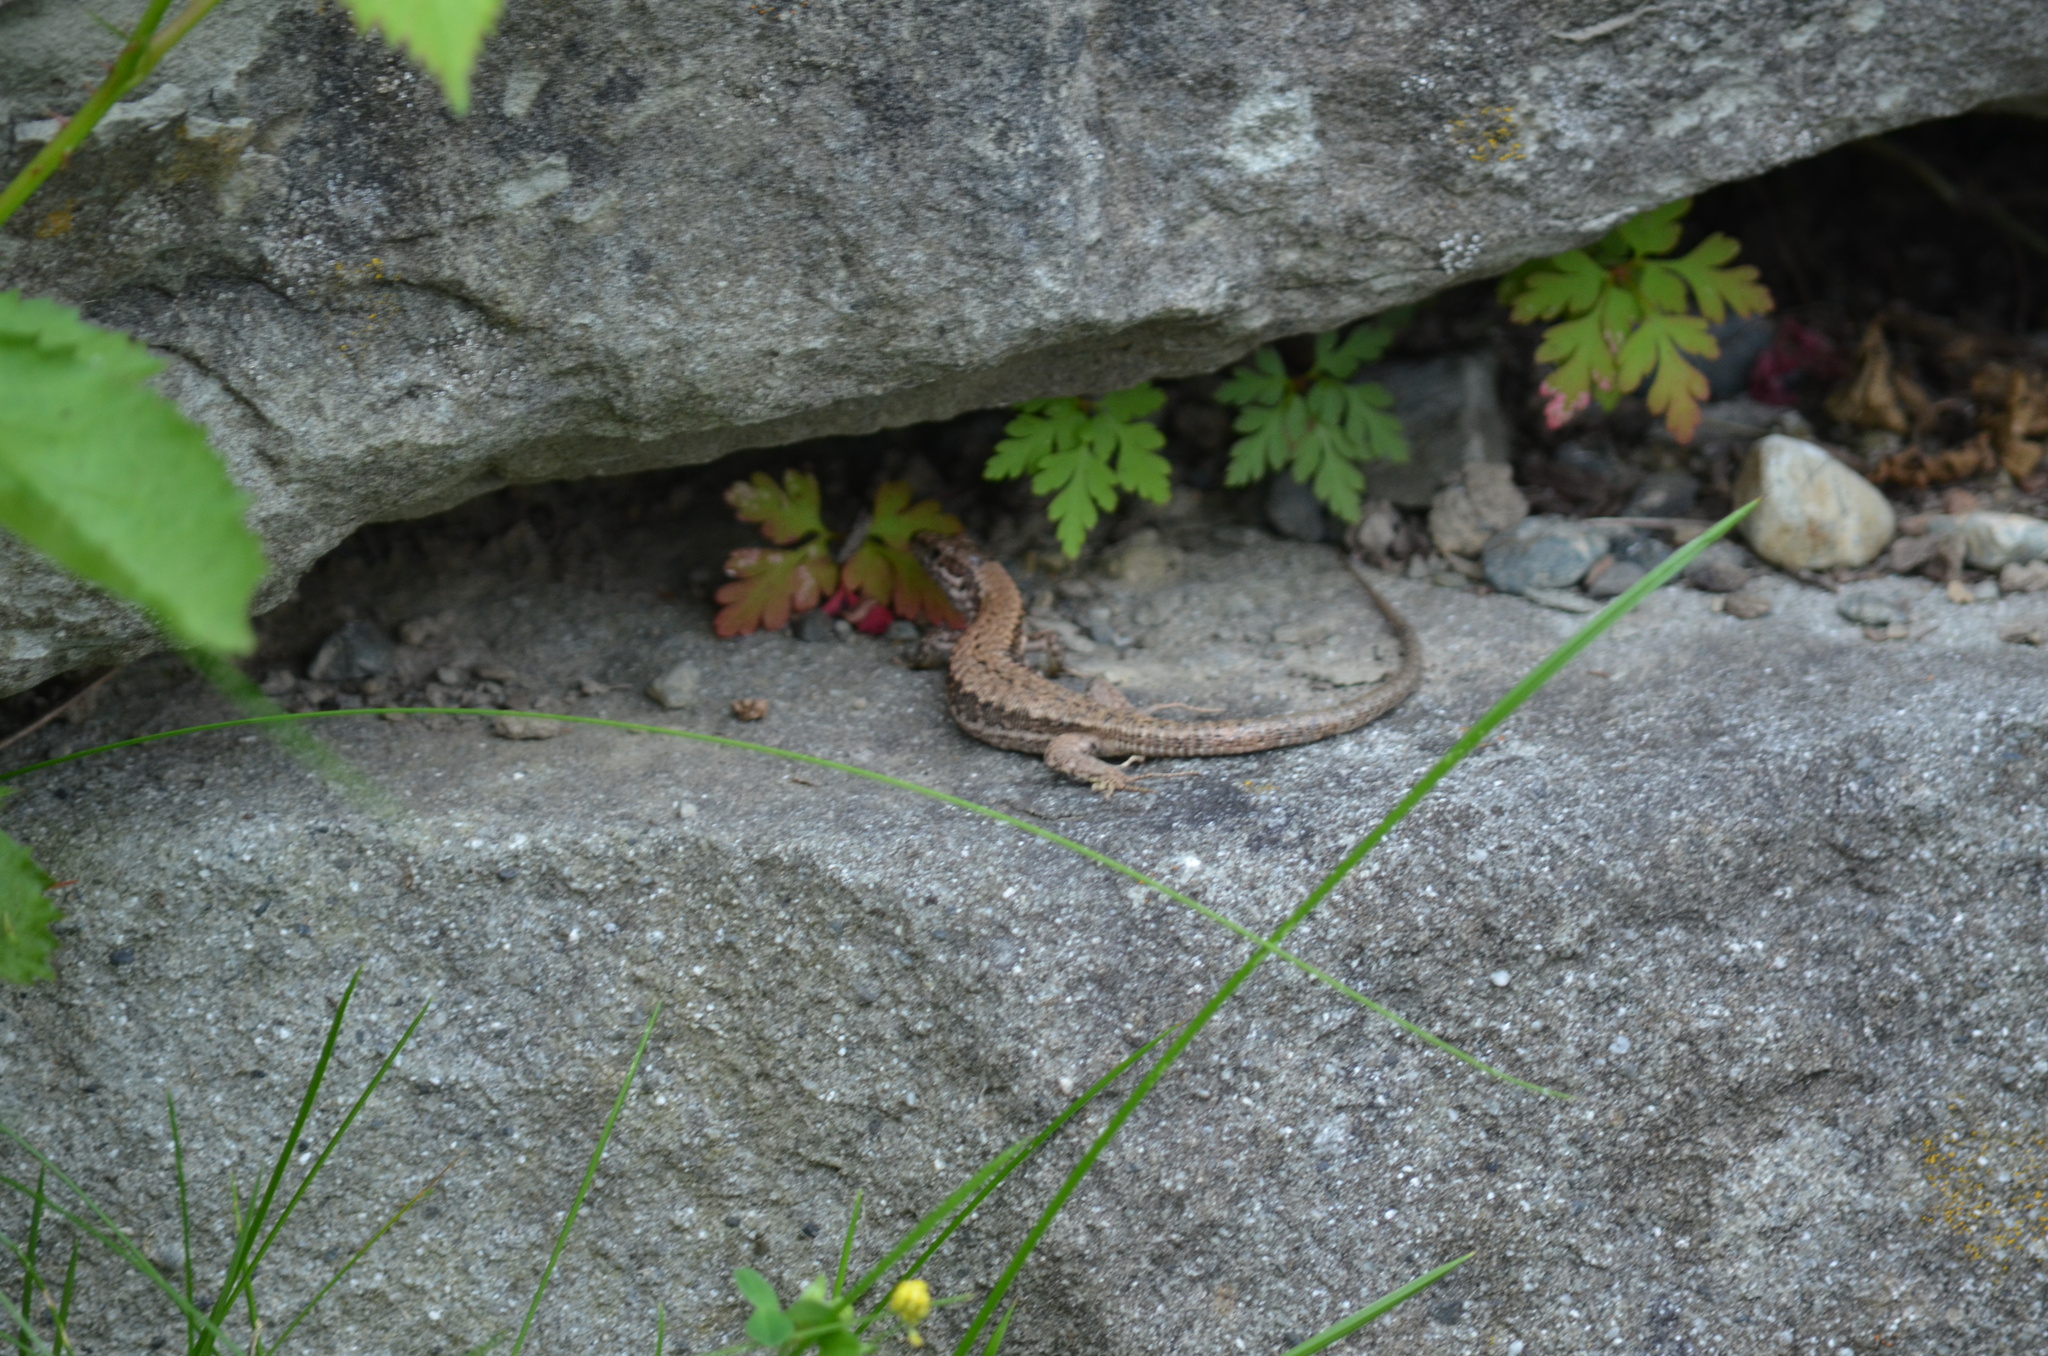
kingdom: Animalia
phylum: Chordata
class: Squamata
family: Lacertidae
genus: Podarcis
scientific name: Podarcis muralis
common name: Common wall lizard
